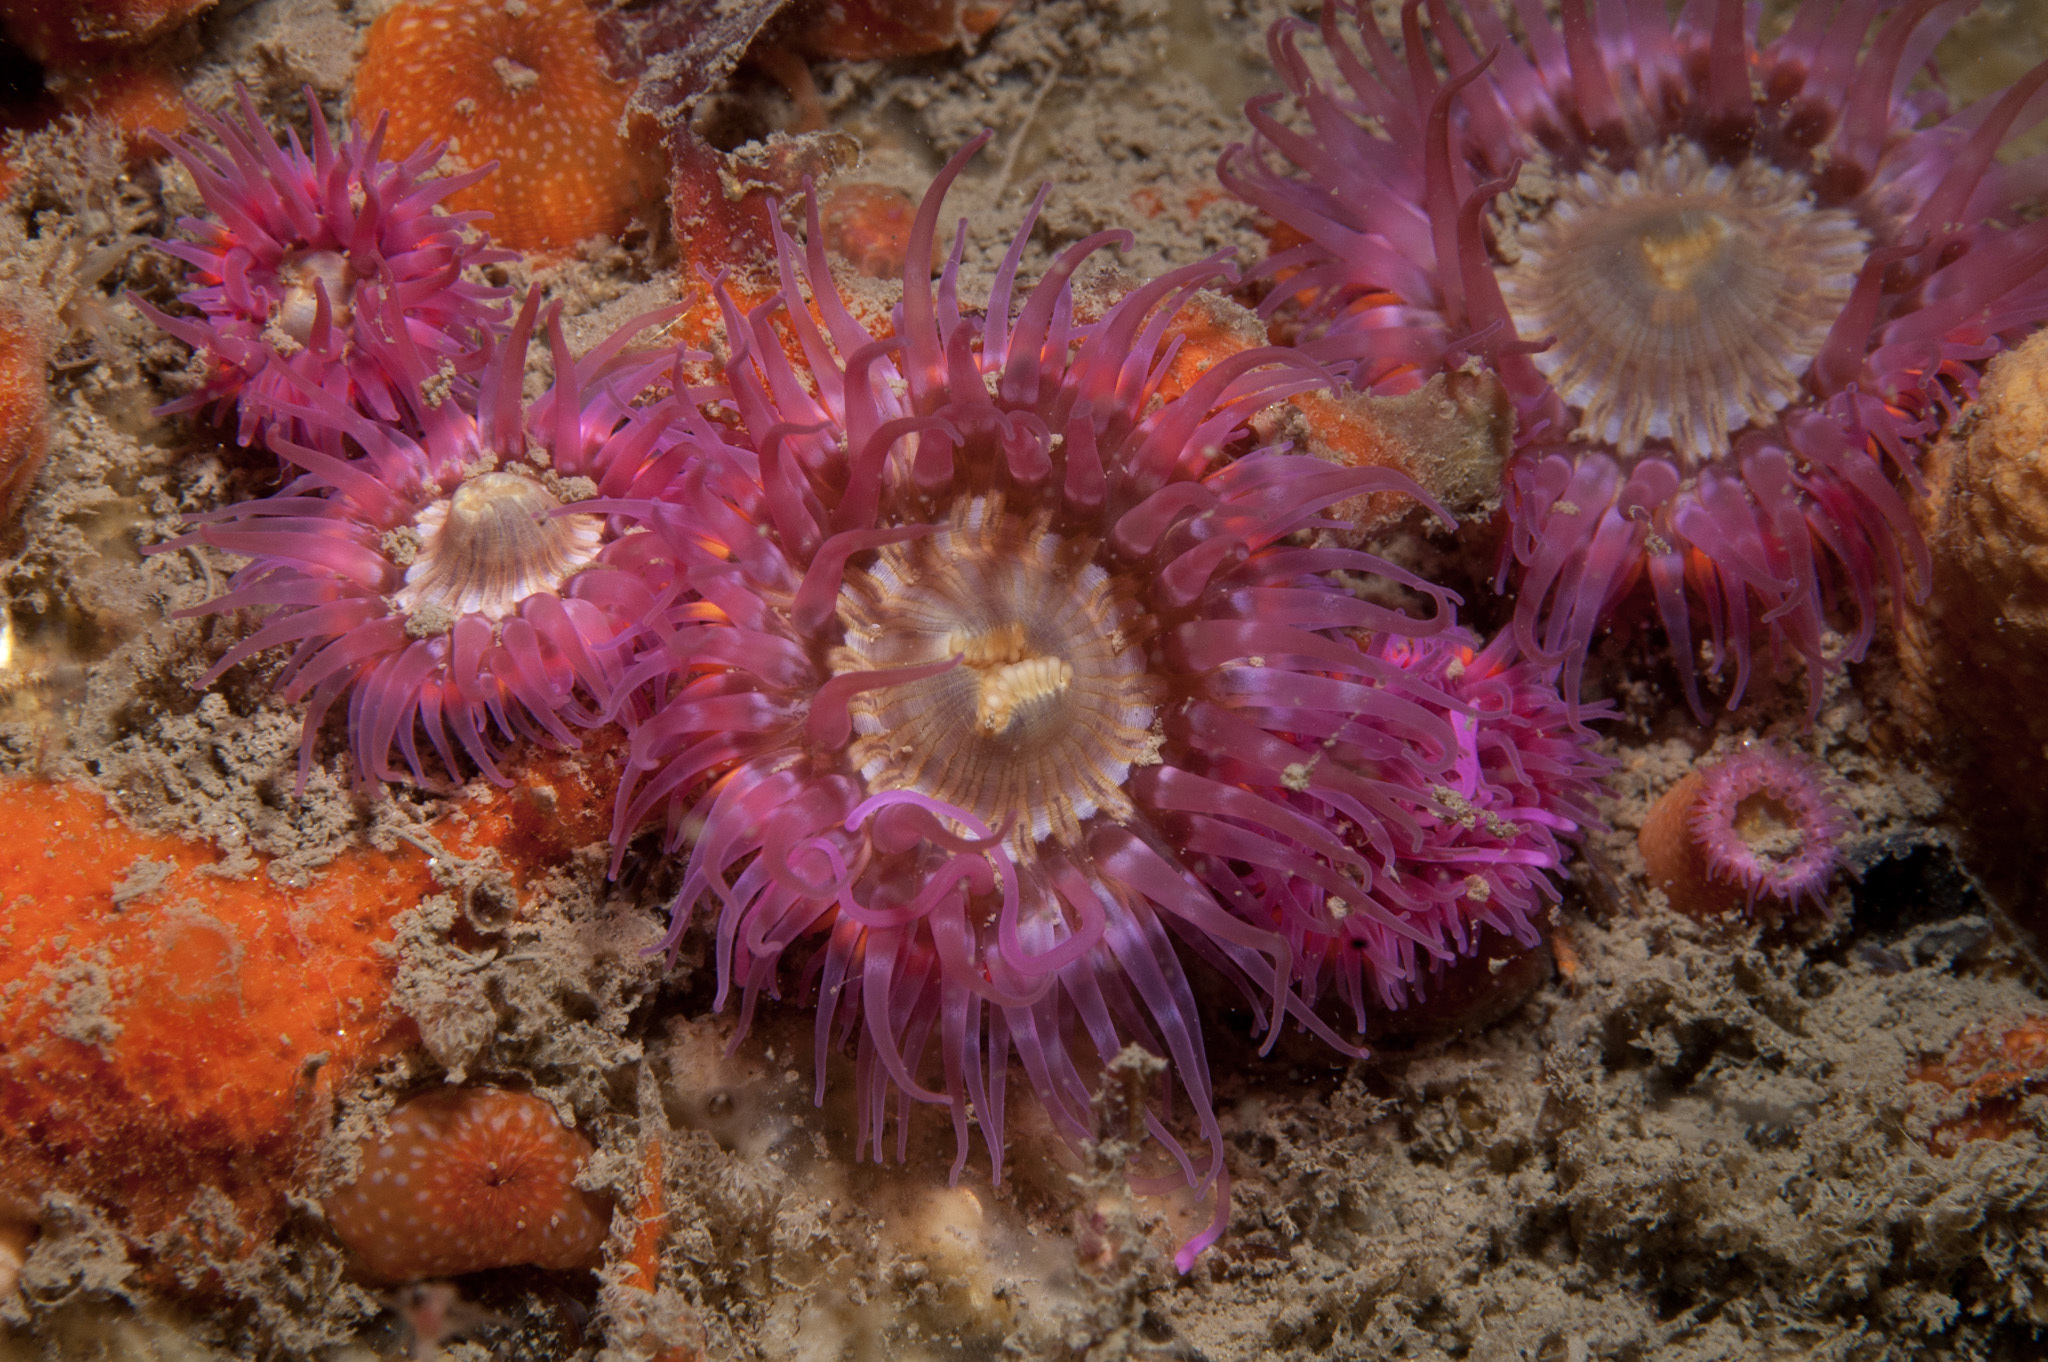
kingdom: Animalia
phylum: Cnidaria
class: Anthozoa
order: Actiniaria
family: Sagartiidae
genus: Cylista
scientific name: Cylista elegans
